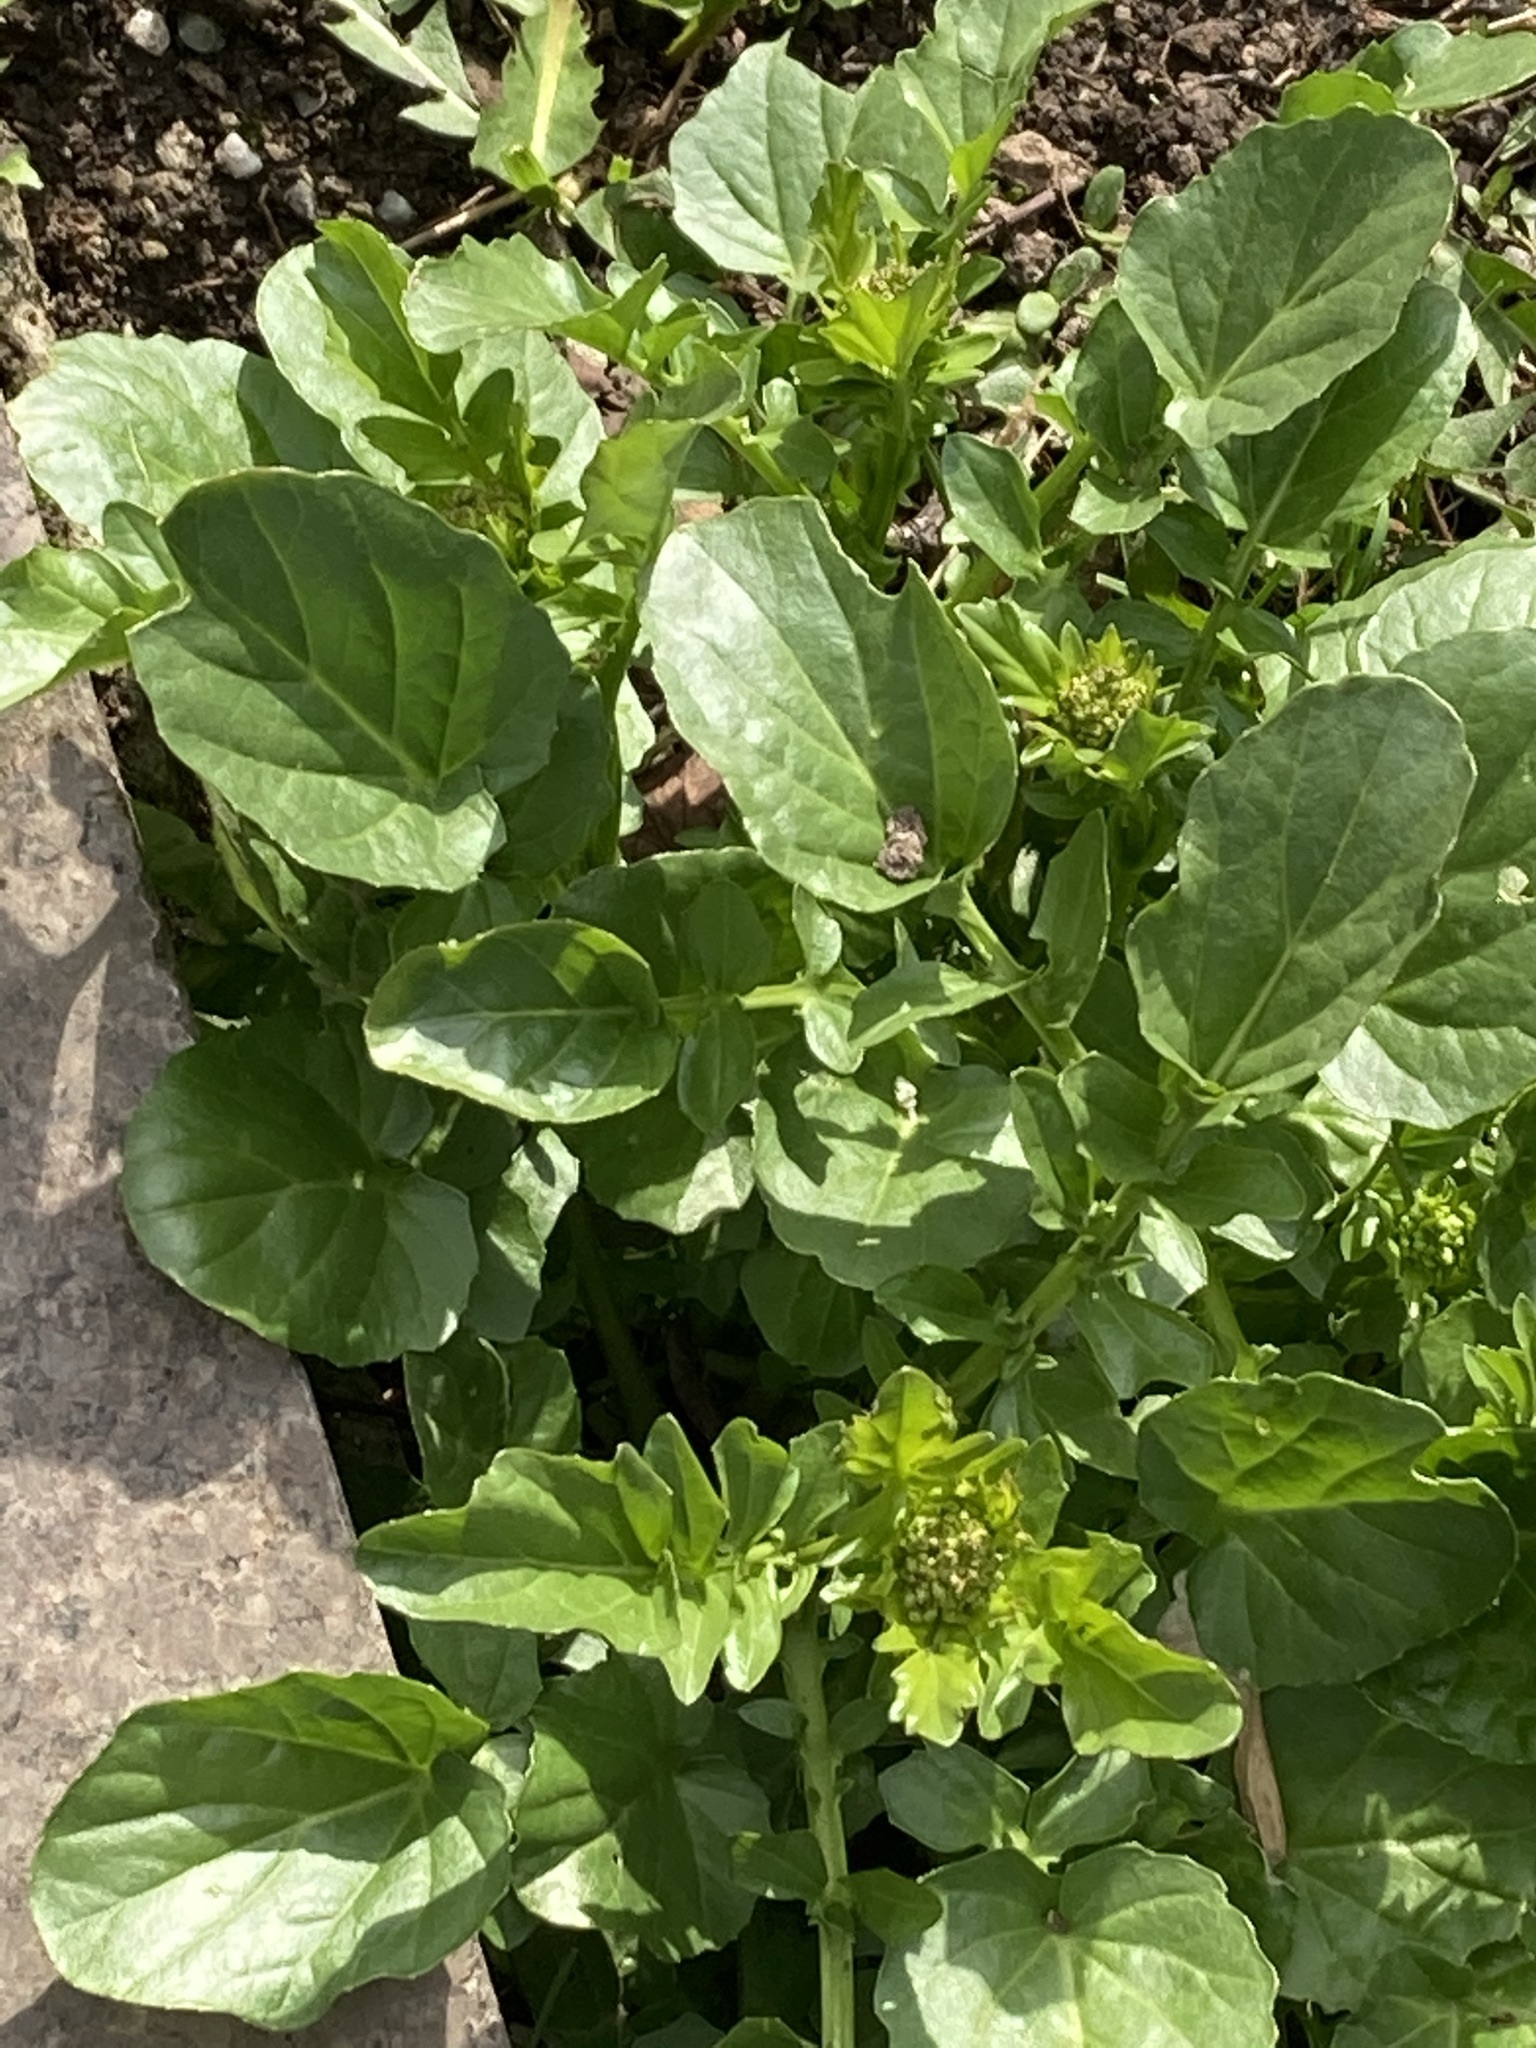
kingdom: Plantae
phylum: Tracheophyta
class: Magnoliopsida
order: Brassicales
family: Brassicaceae
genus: Barbarea
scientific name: Barbarea vulgaris
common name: Cressy-greens
